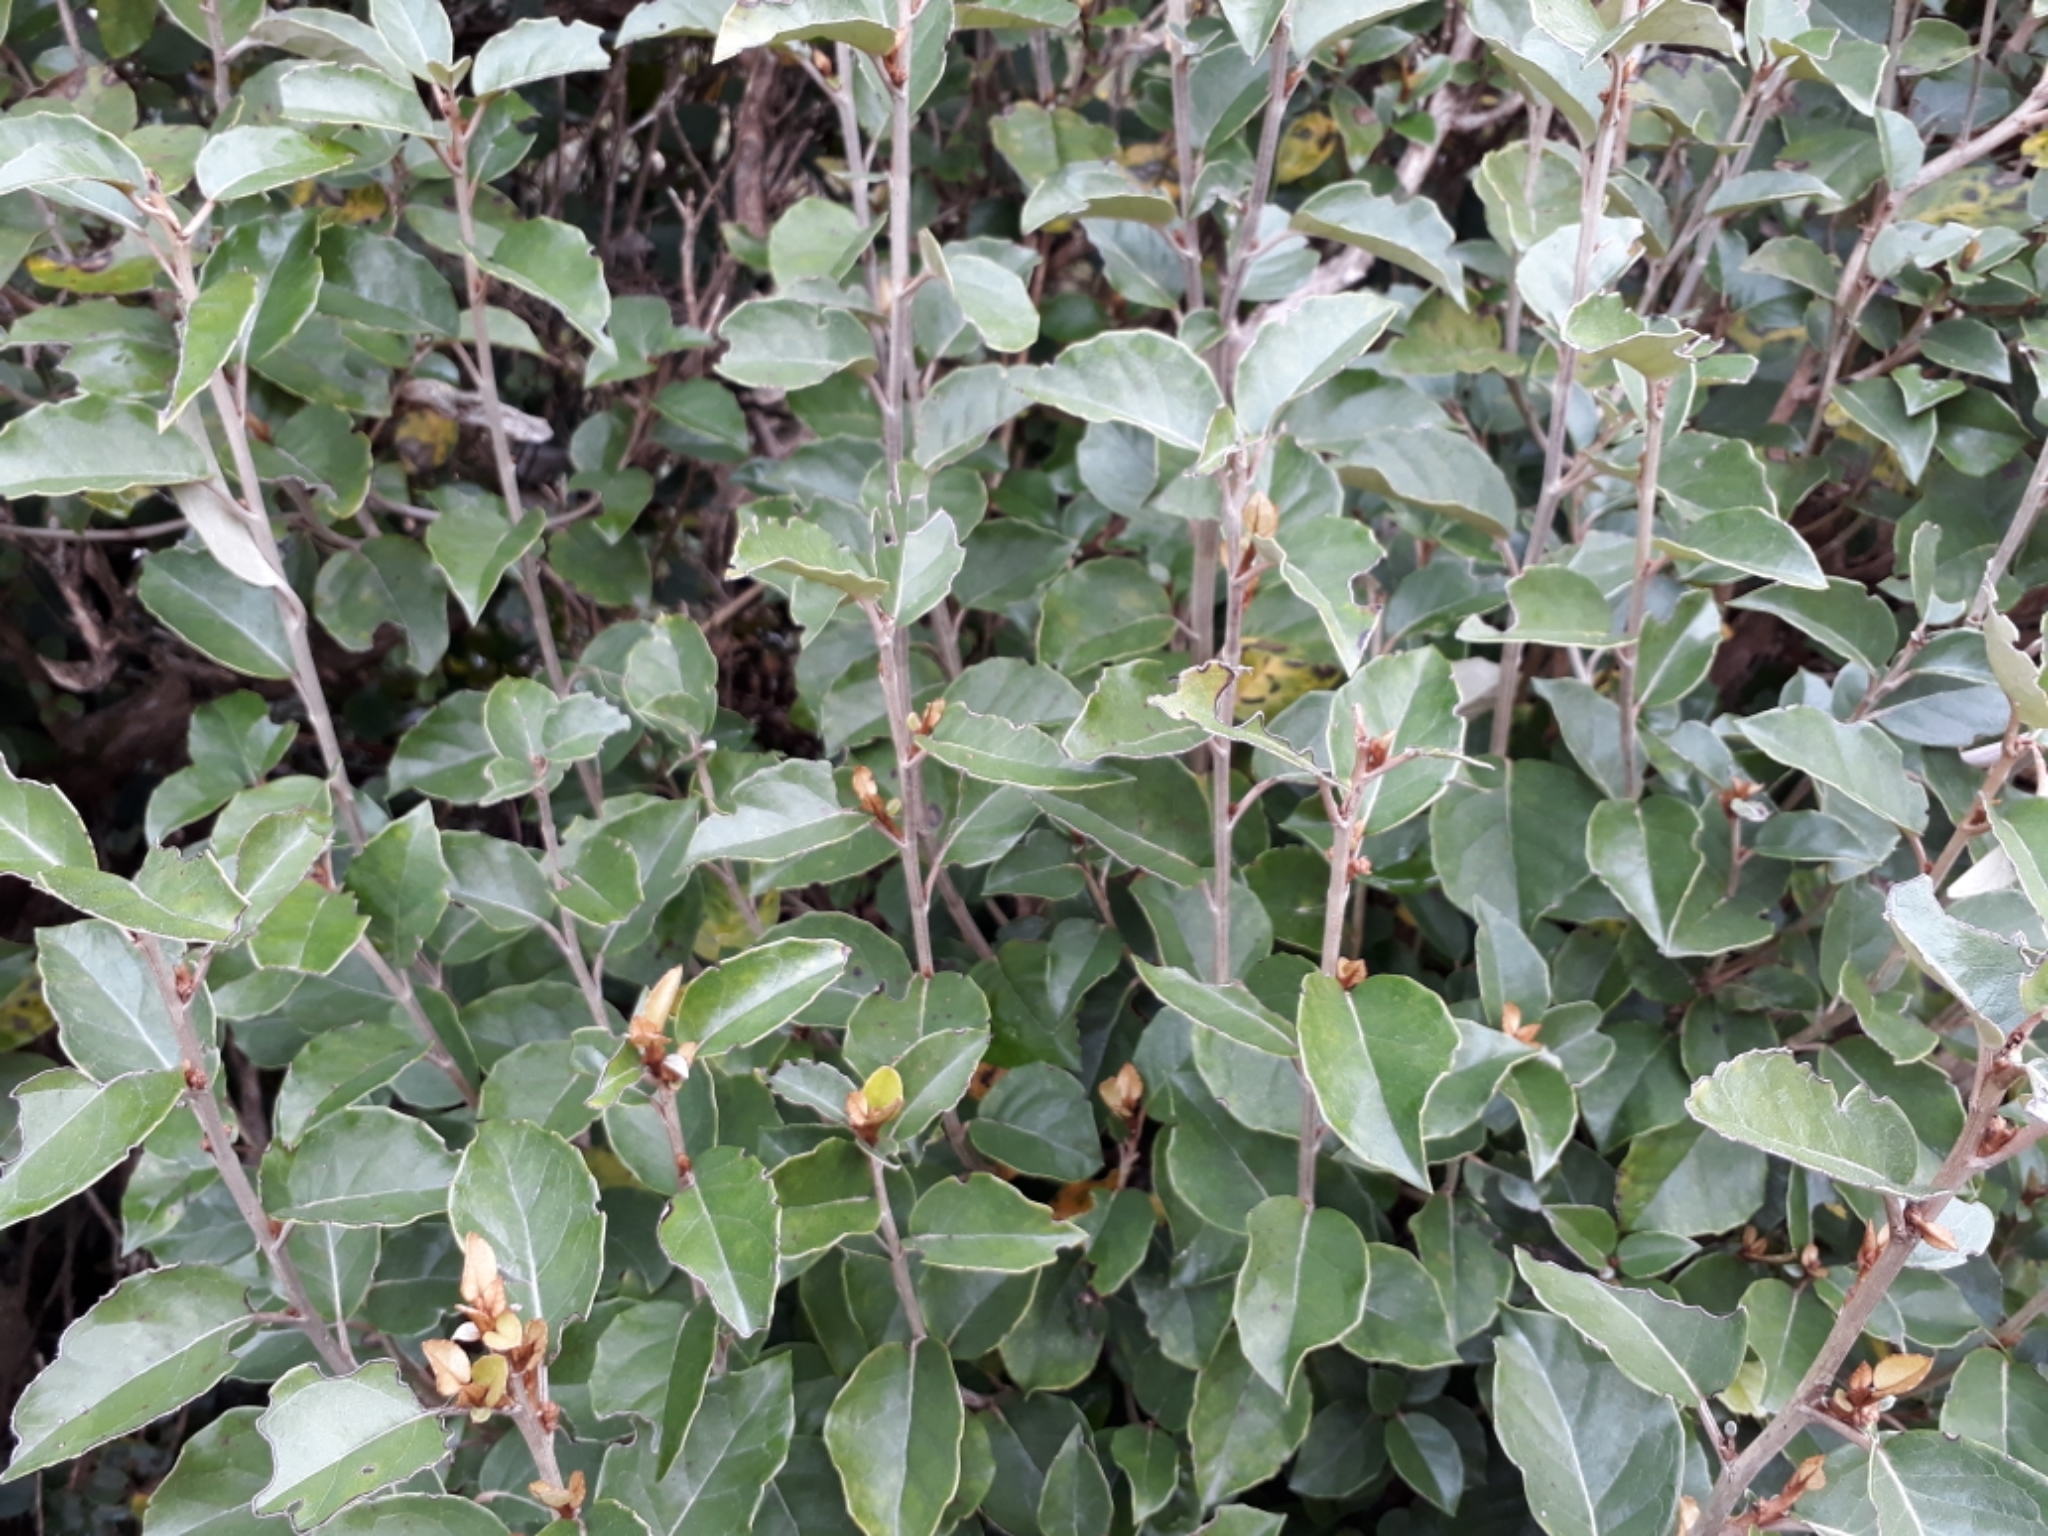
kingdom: Plantae
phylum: Tracheophyta
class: Magnoliopsida
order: Asterales
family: Asteraceae
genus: Olearia
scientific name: Olearia arborescens
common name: Glossy tree daisy
